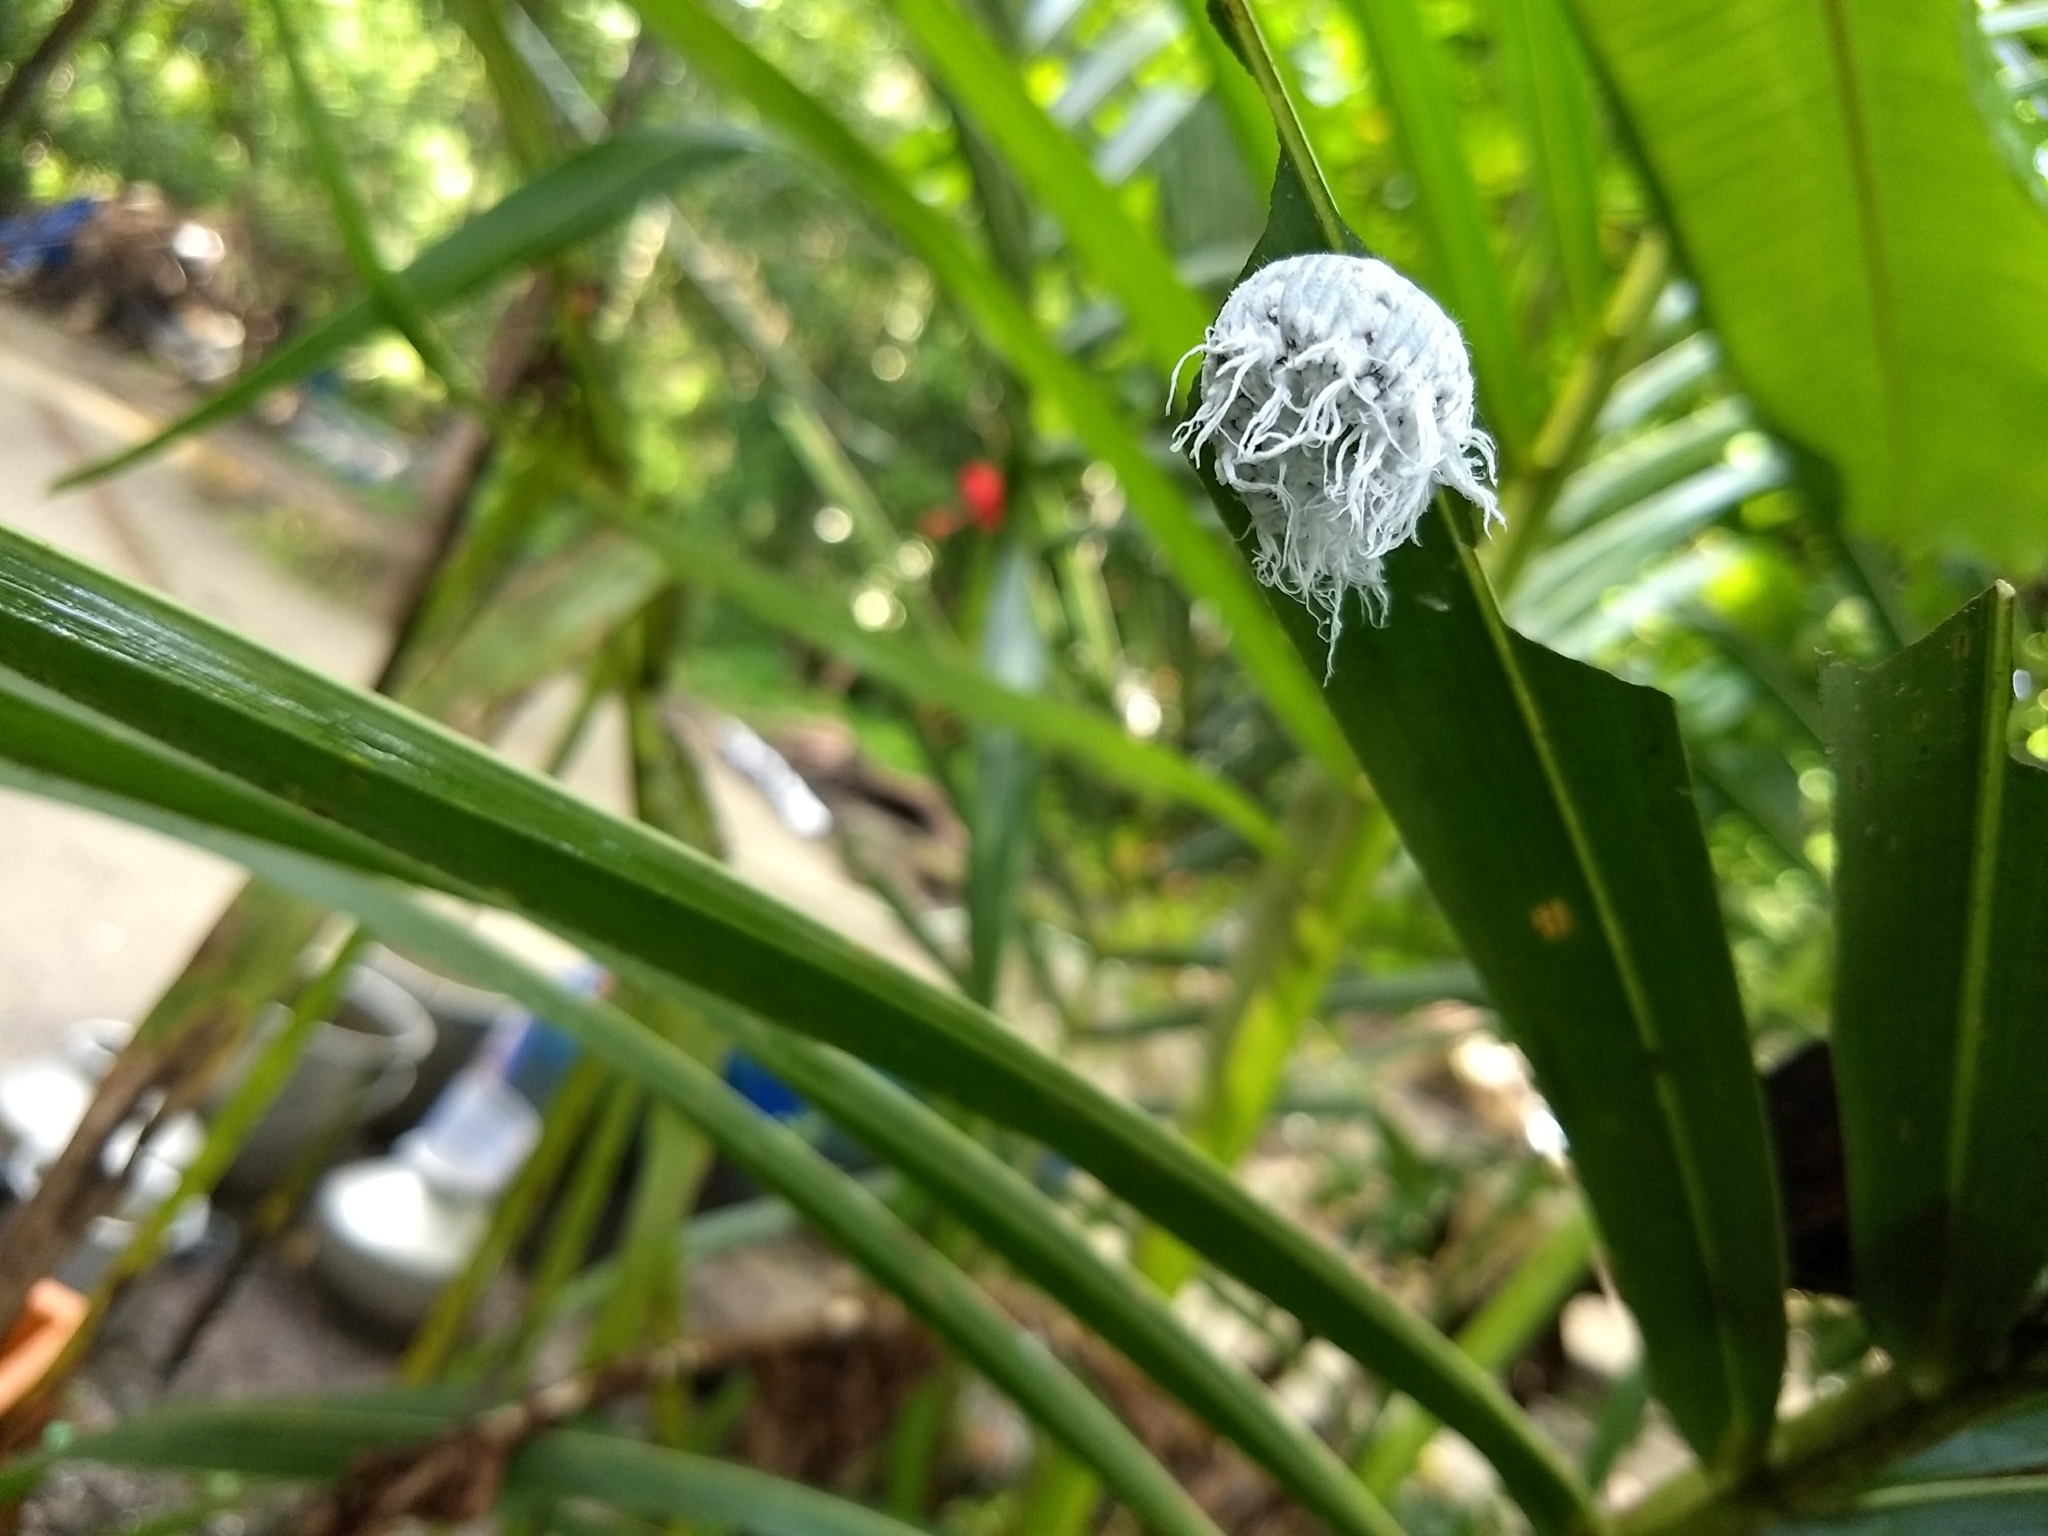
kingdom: Animalia
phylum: Arthropoda
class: Insecta
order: Lepidoptera
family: Hesperiidae
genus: Gangara
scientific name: Gangara thyrsis
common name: Giant redeye
